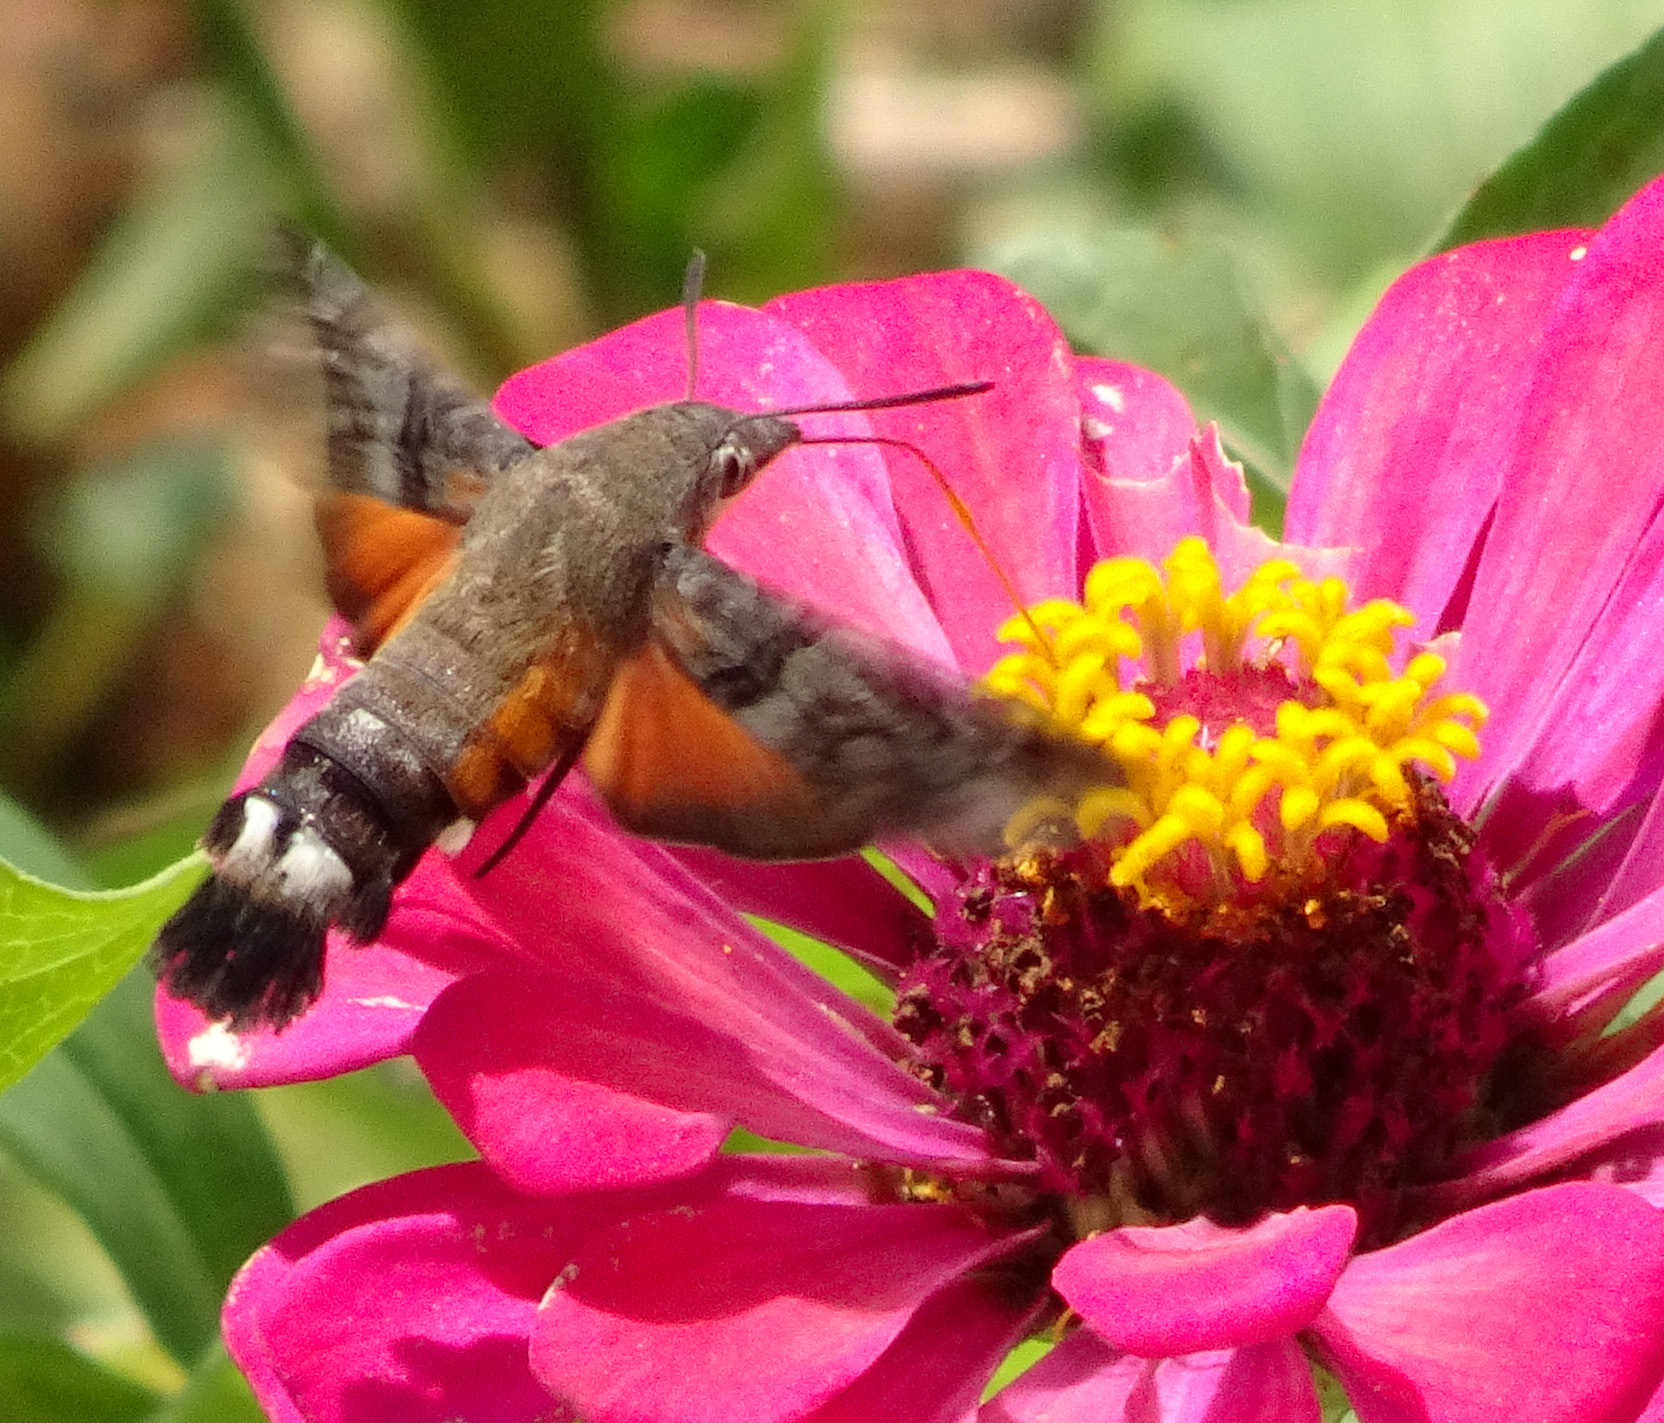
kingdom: Animalia
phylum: Arthropoda
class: Insecta
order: Lepidoptera
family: Sphingidae
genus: Macroglossum
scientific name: Macroglossum gyrans
